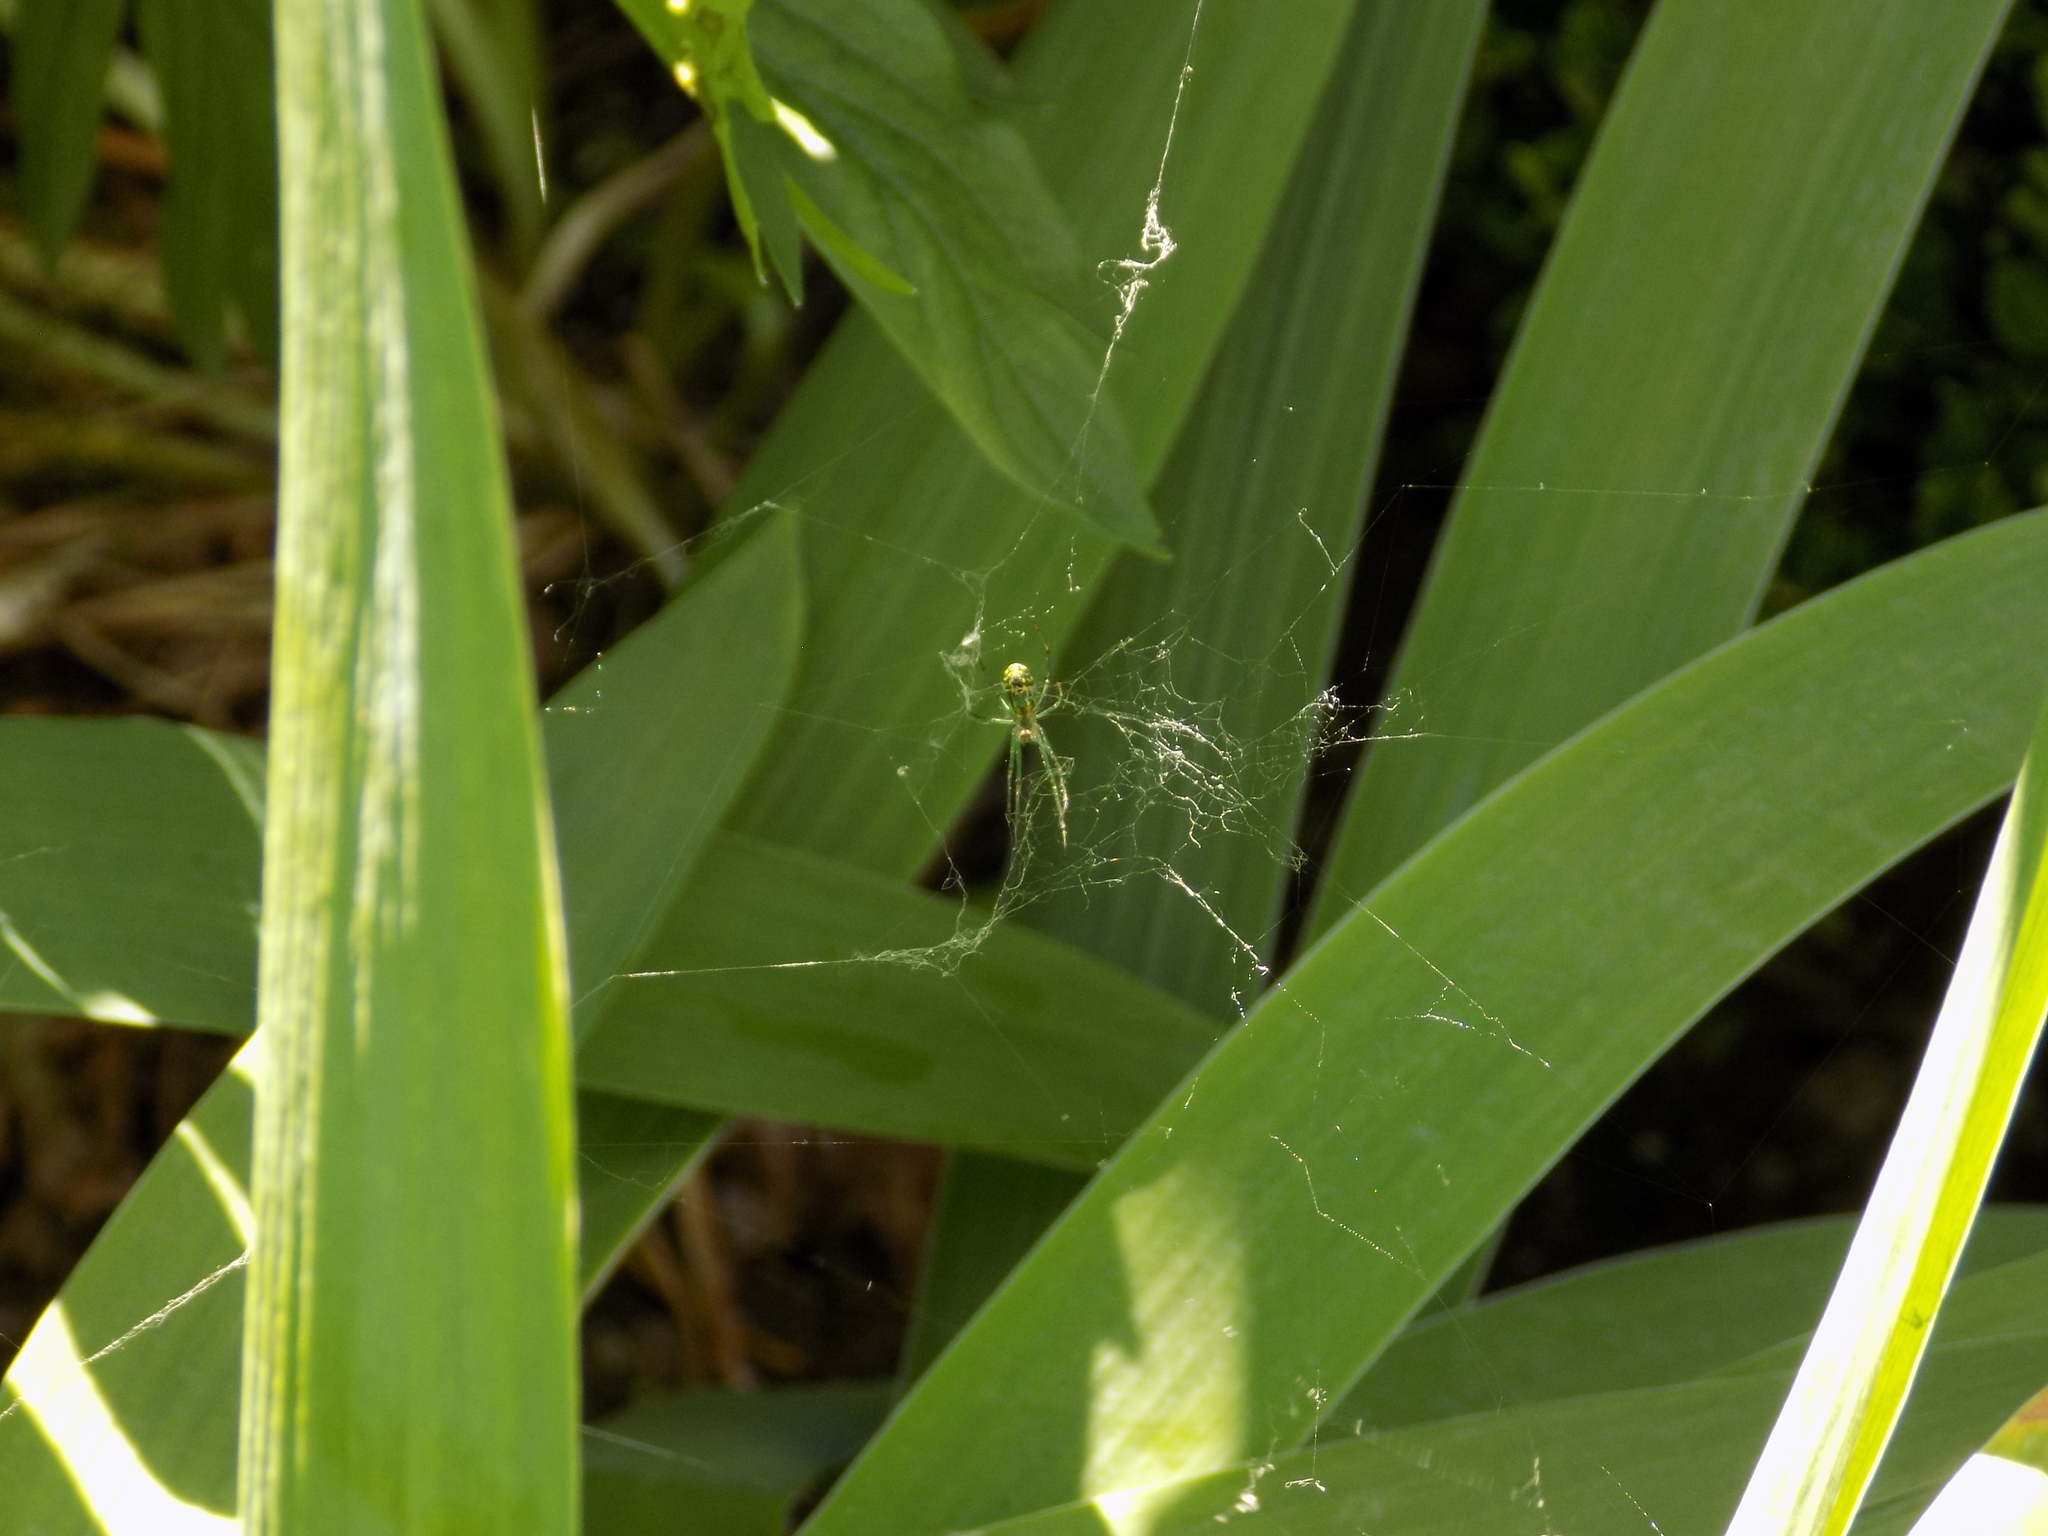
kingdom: Animalia
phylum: Arthropoda
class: Arachnida
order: Araneae
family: Tetragnathidae
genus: Leucauge
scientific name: Leucauge venusta
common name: Longjawed orb weavers
